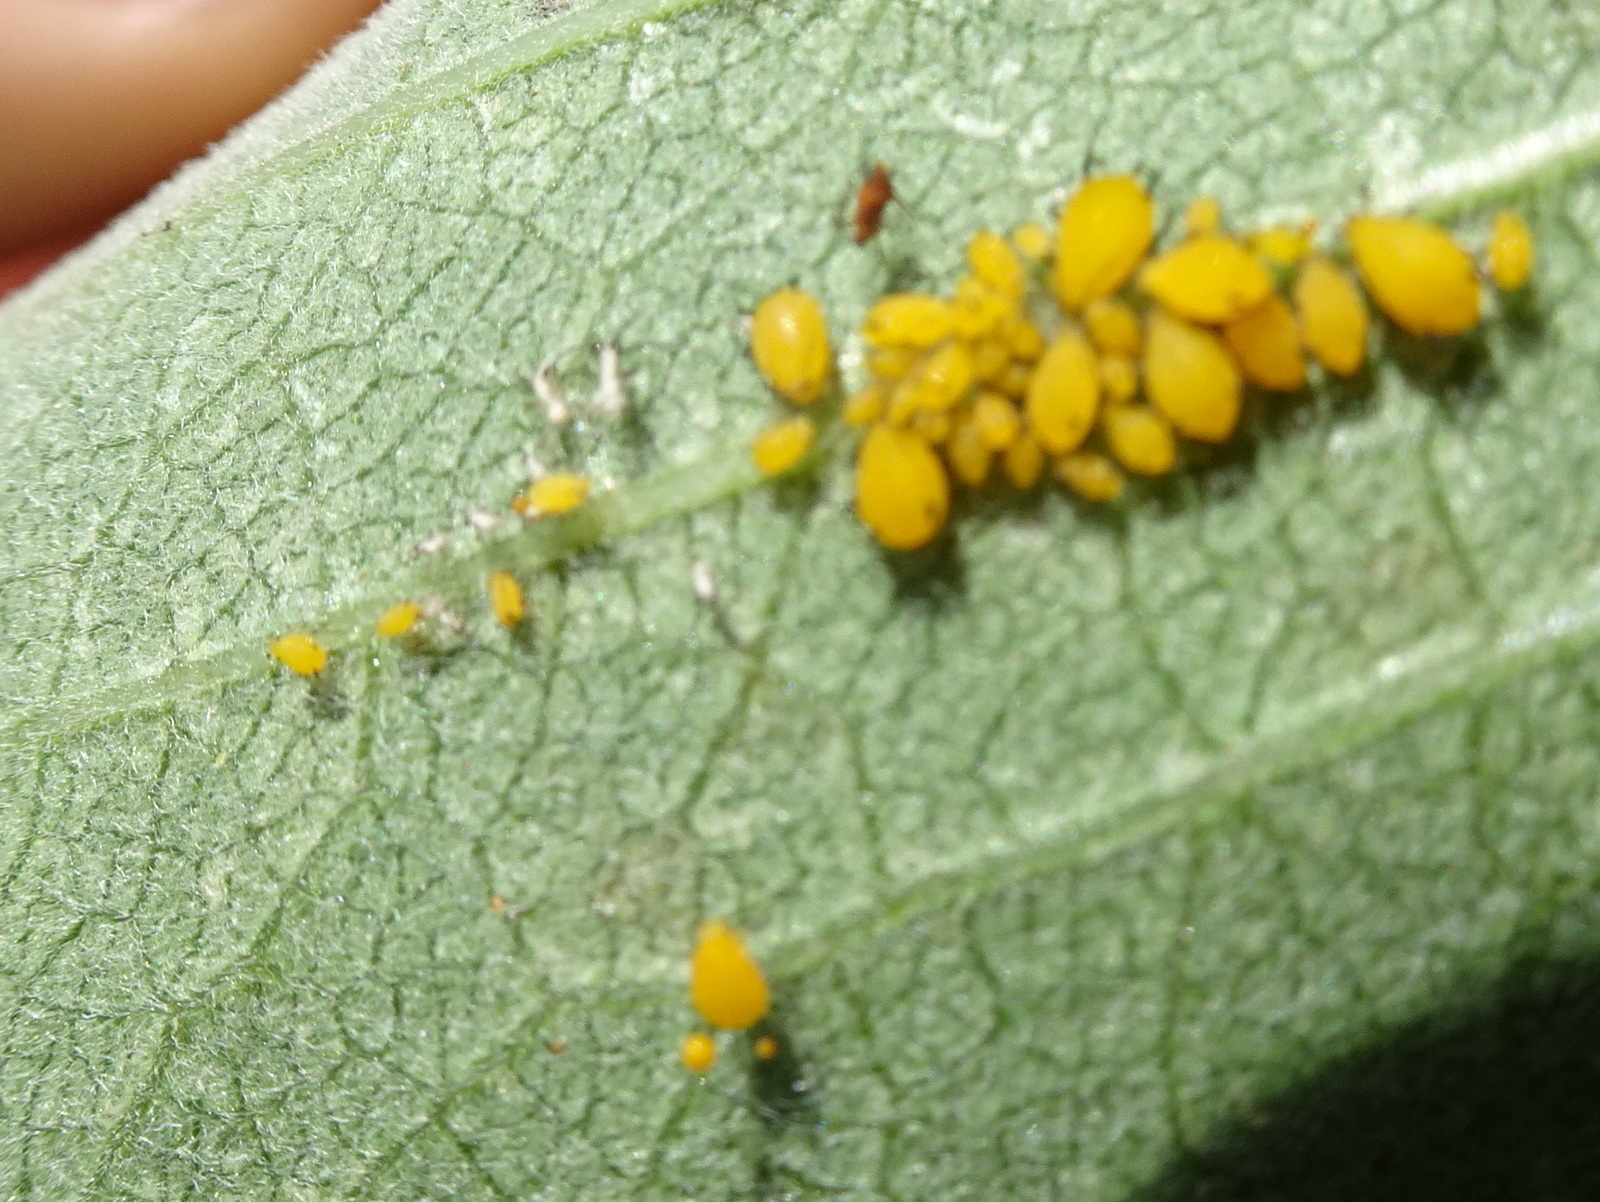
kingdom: Animalia
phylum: Arthropoda
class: Insecta
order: Hemiptera
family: Aphididae
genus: Aphis
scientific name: Aphis nerii
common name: Oleander aphid
